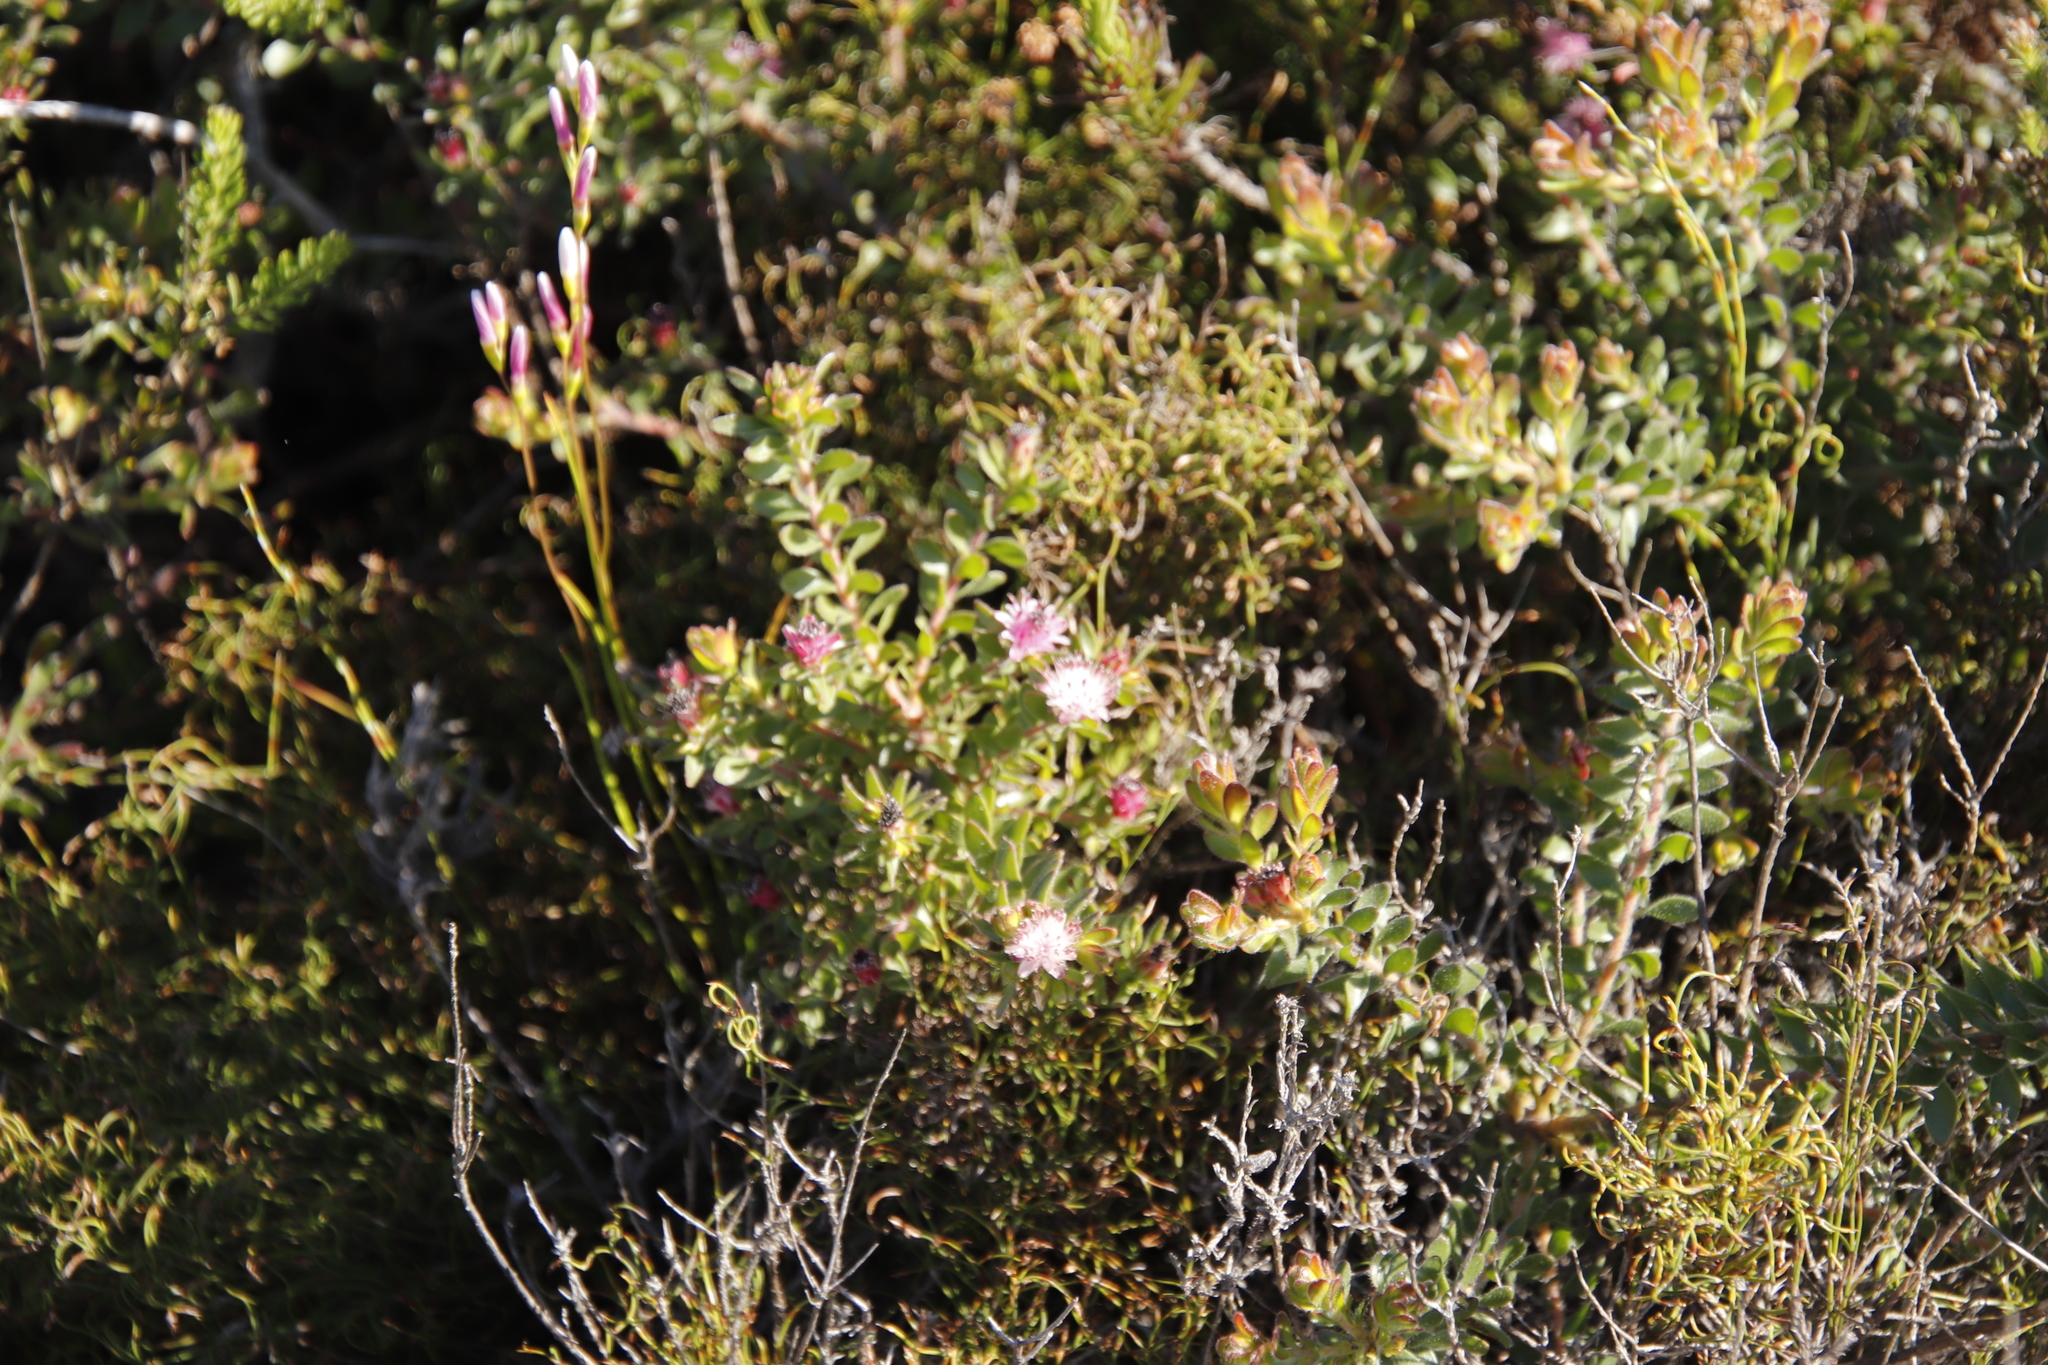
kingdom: Plantae
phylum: Tracheophyta
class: Magnoliopsida
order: Proteales
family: Proteaceae
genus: Diastella
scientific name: Diastella divaricata
